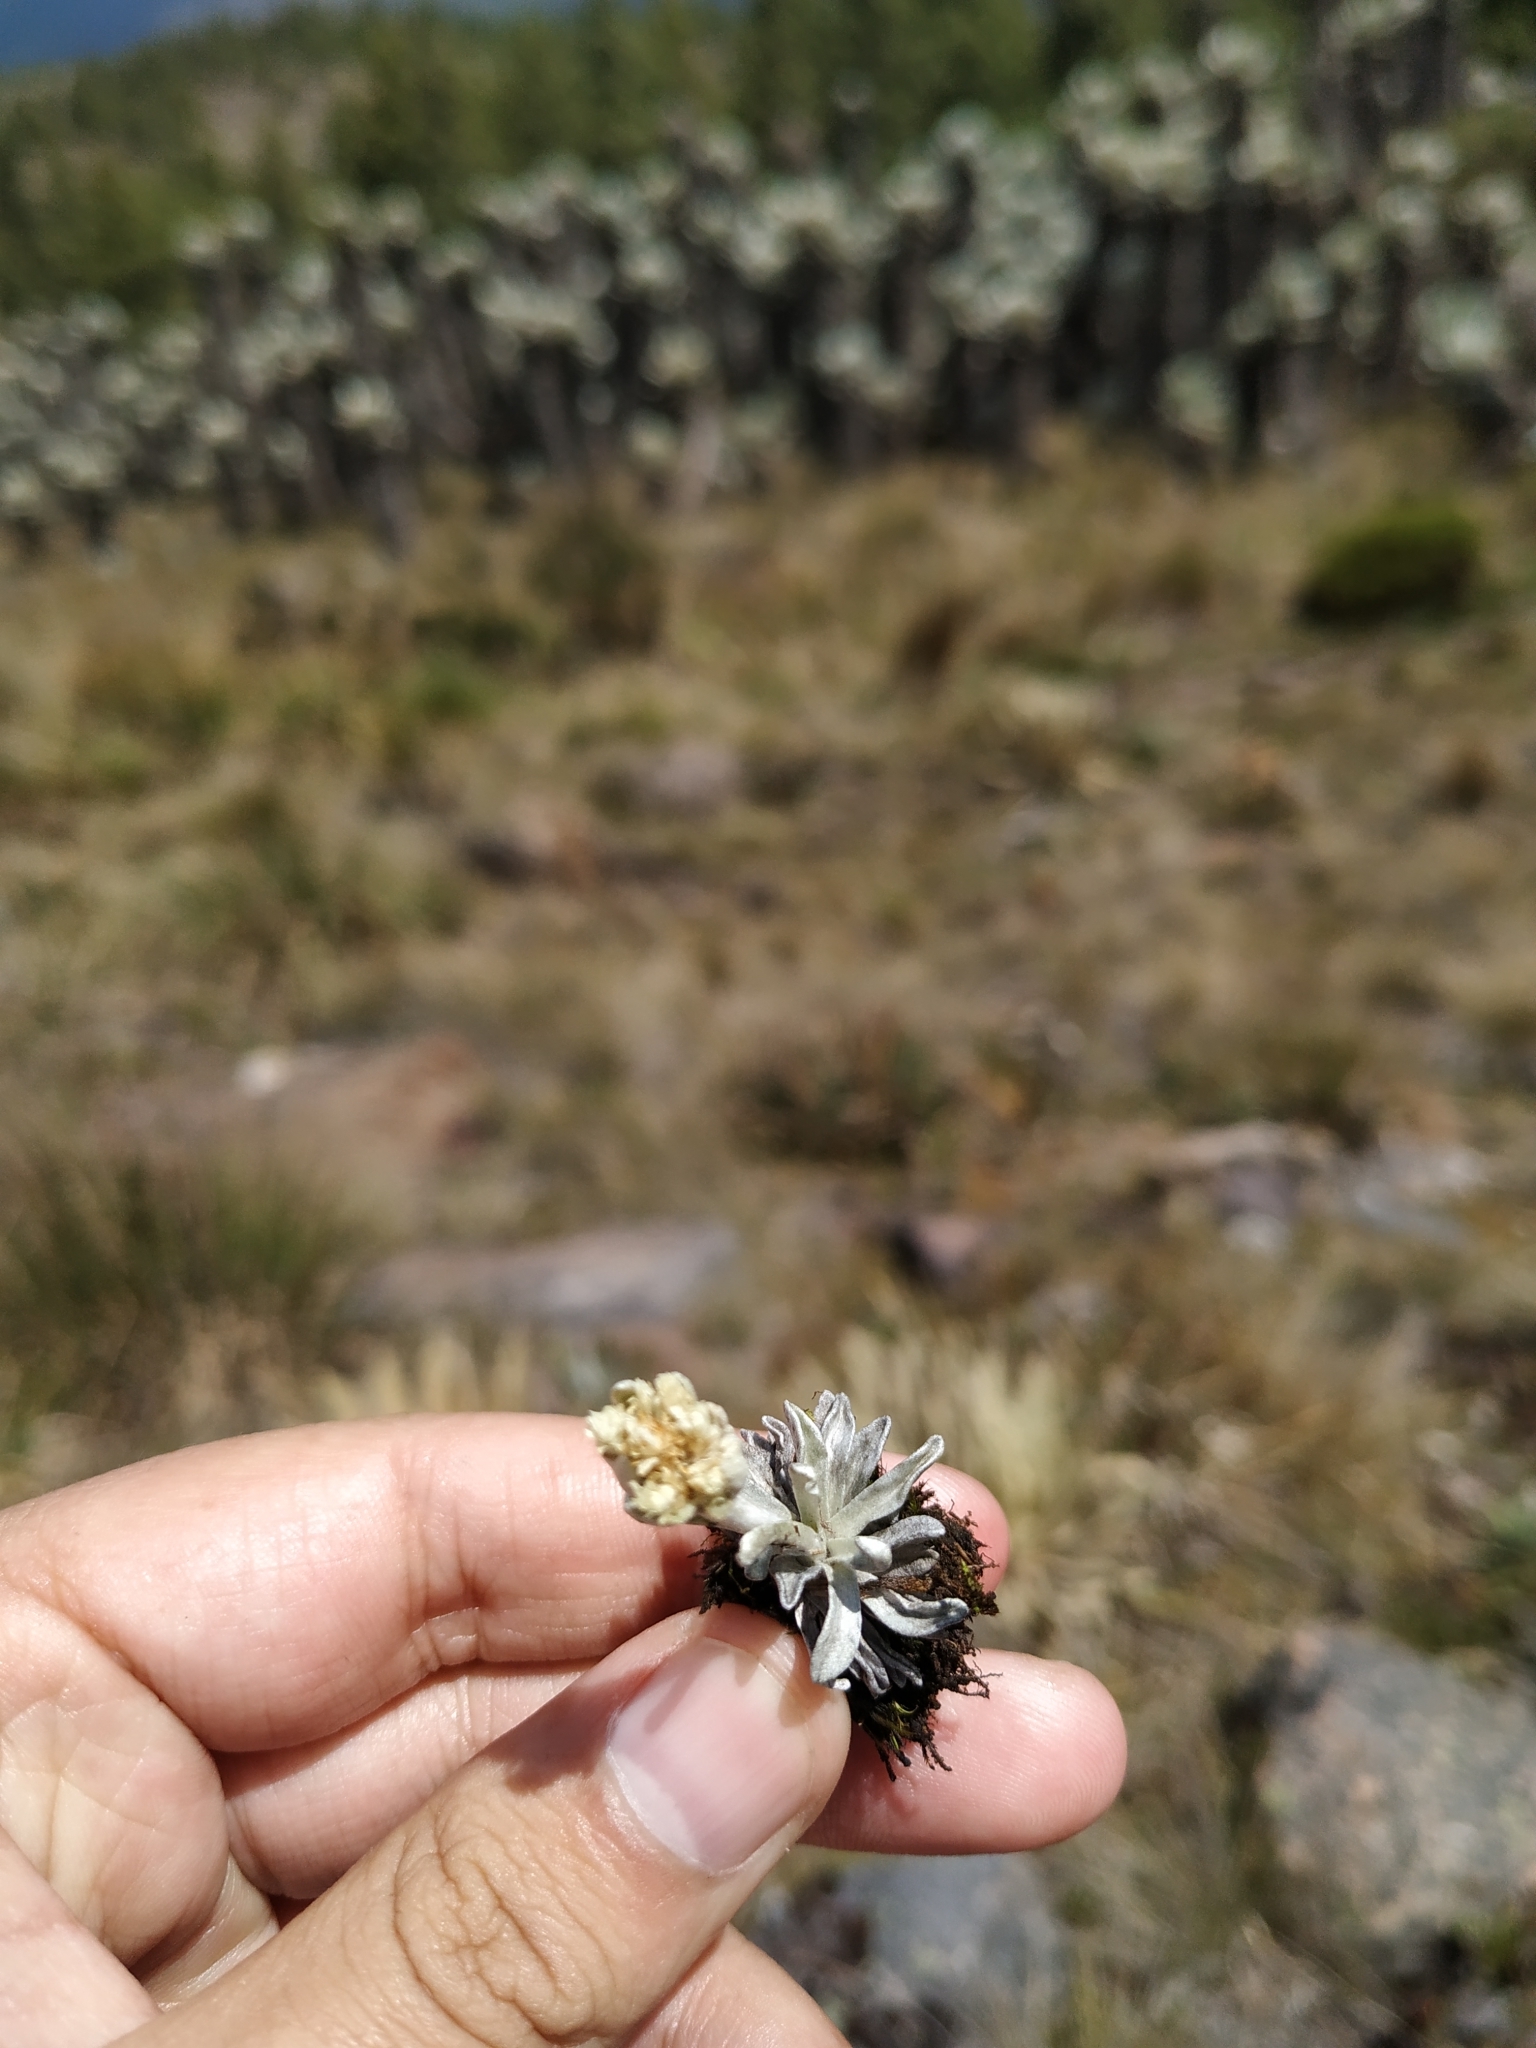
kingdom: Plantae
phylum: Tracheophyta
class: Magnoliopsida
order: Asterales
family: Asteraceae
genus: Pseudognaphalium
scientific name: Pseudognaphalium paramorum
